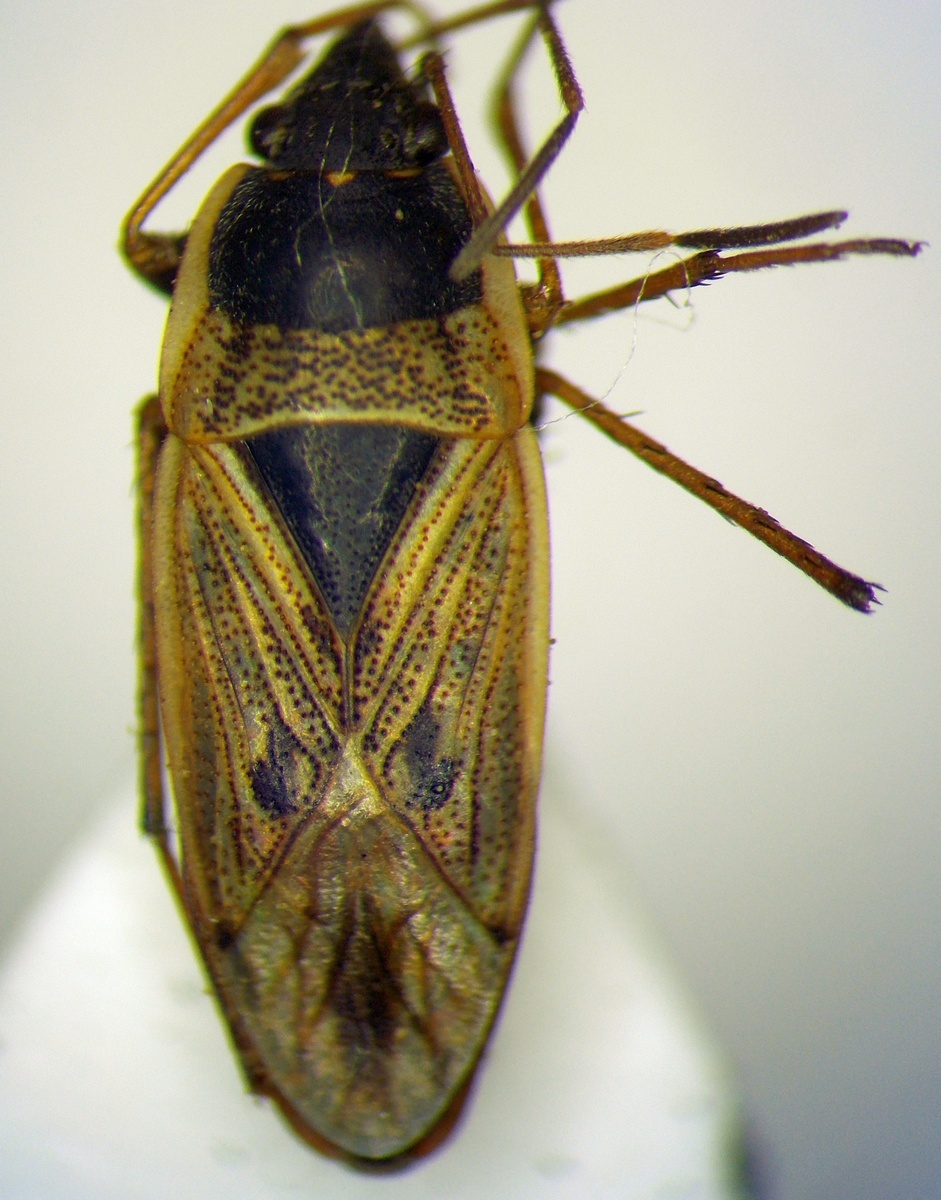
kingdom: Animalia
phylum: Arthropoda
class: Insecta
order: Hemiptera
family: Rhyparochromidae
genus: Xanthochilus
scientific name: Xanthochilus omissus
